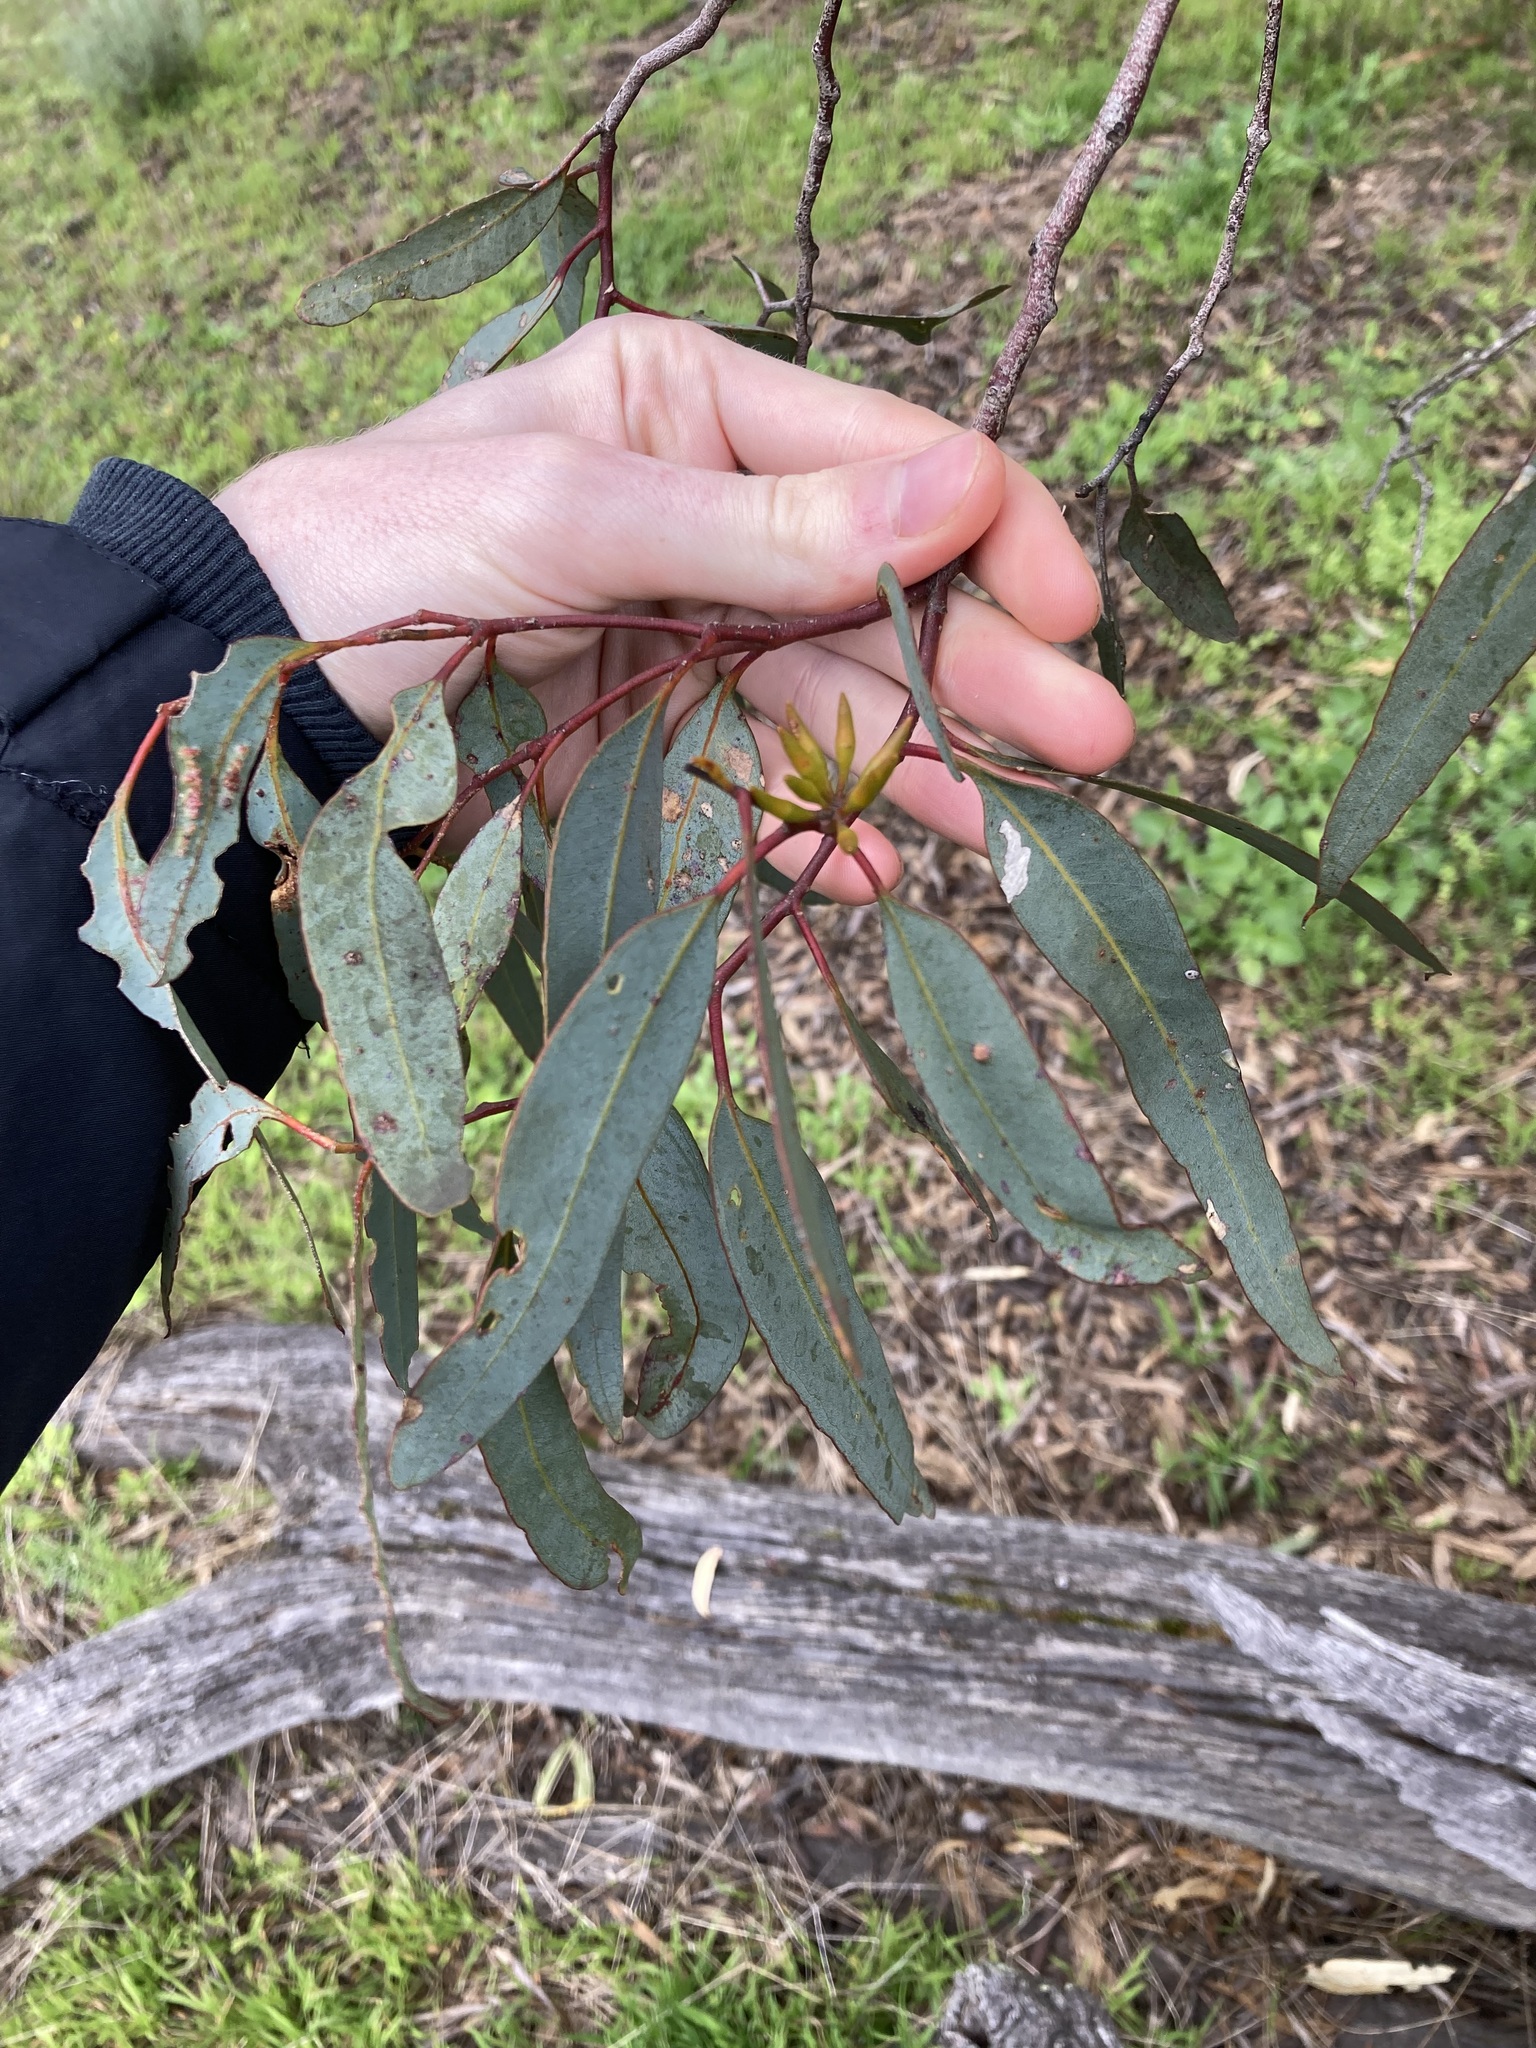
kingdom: Plantae
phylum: Tracheophyta
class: Magnoliopsida
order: Myrtales
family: Myrtaceae
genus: Eucalyptus
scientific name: Eucalyptus wandoo
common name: White gum
